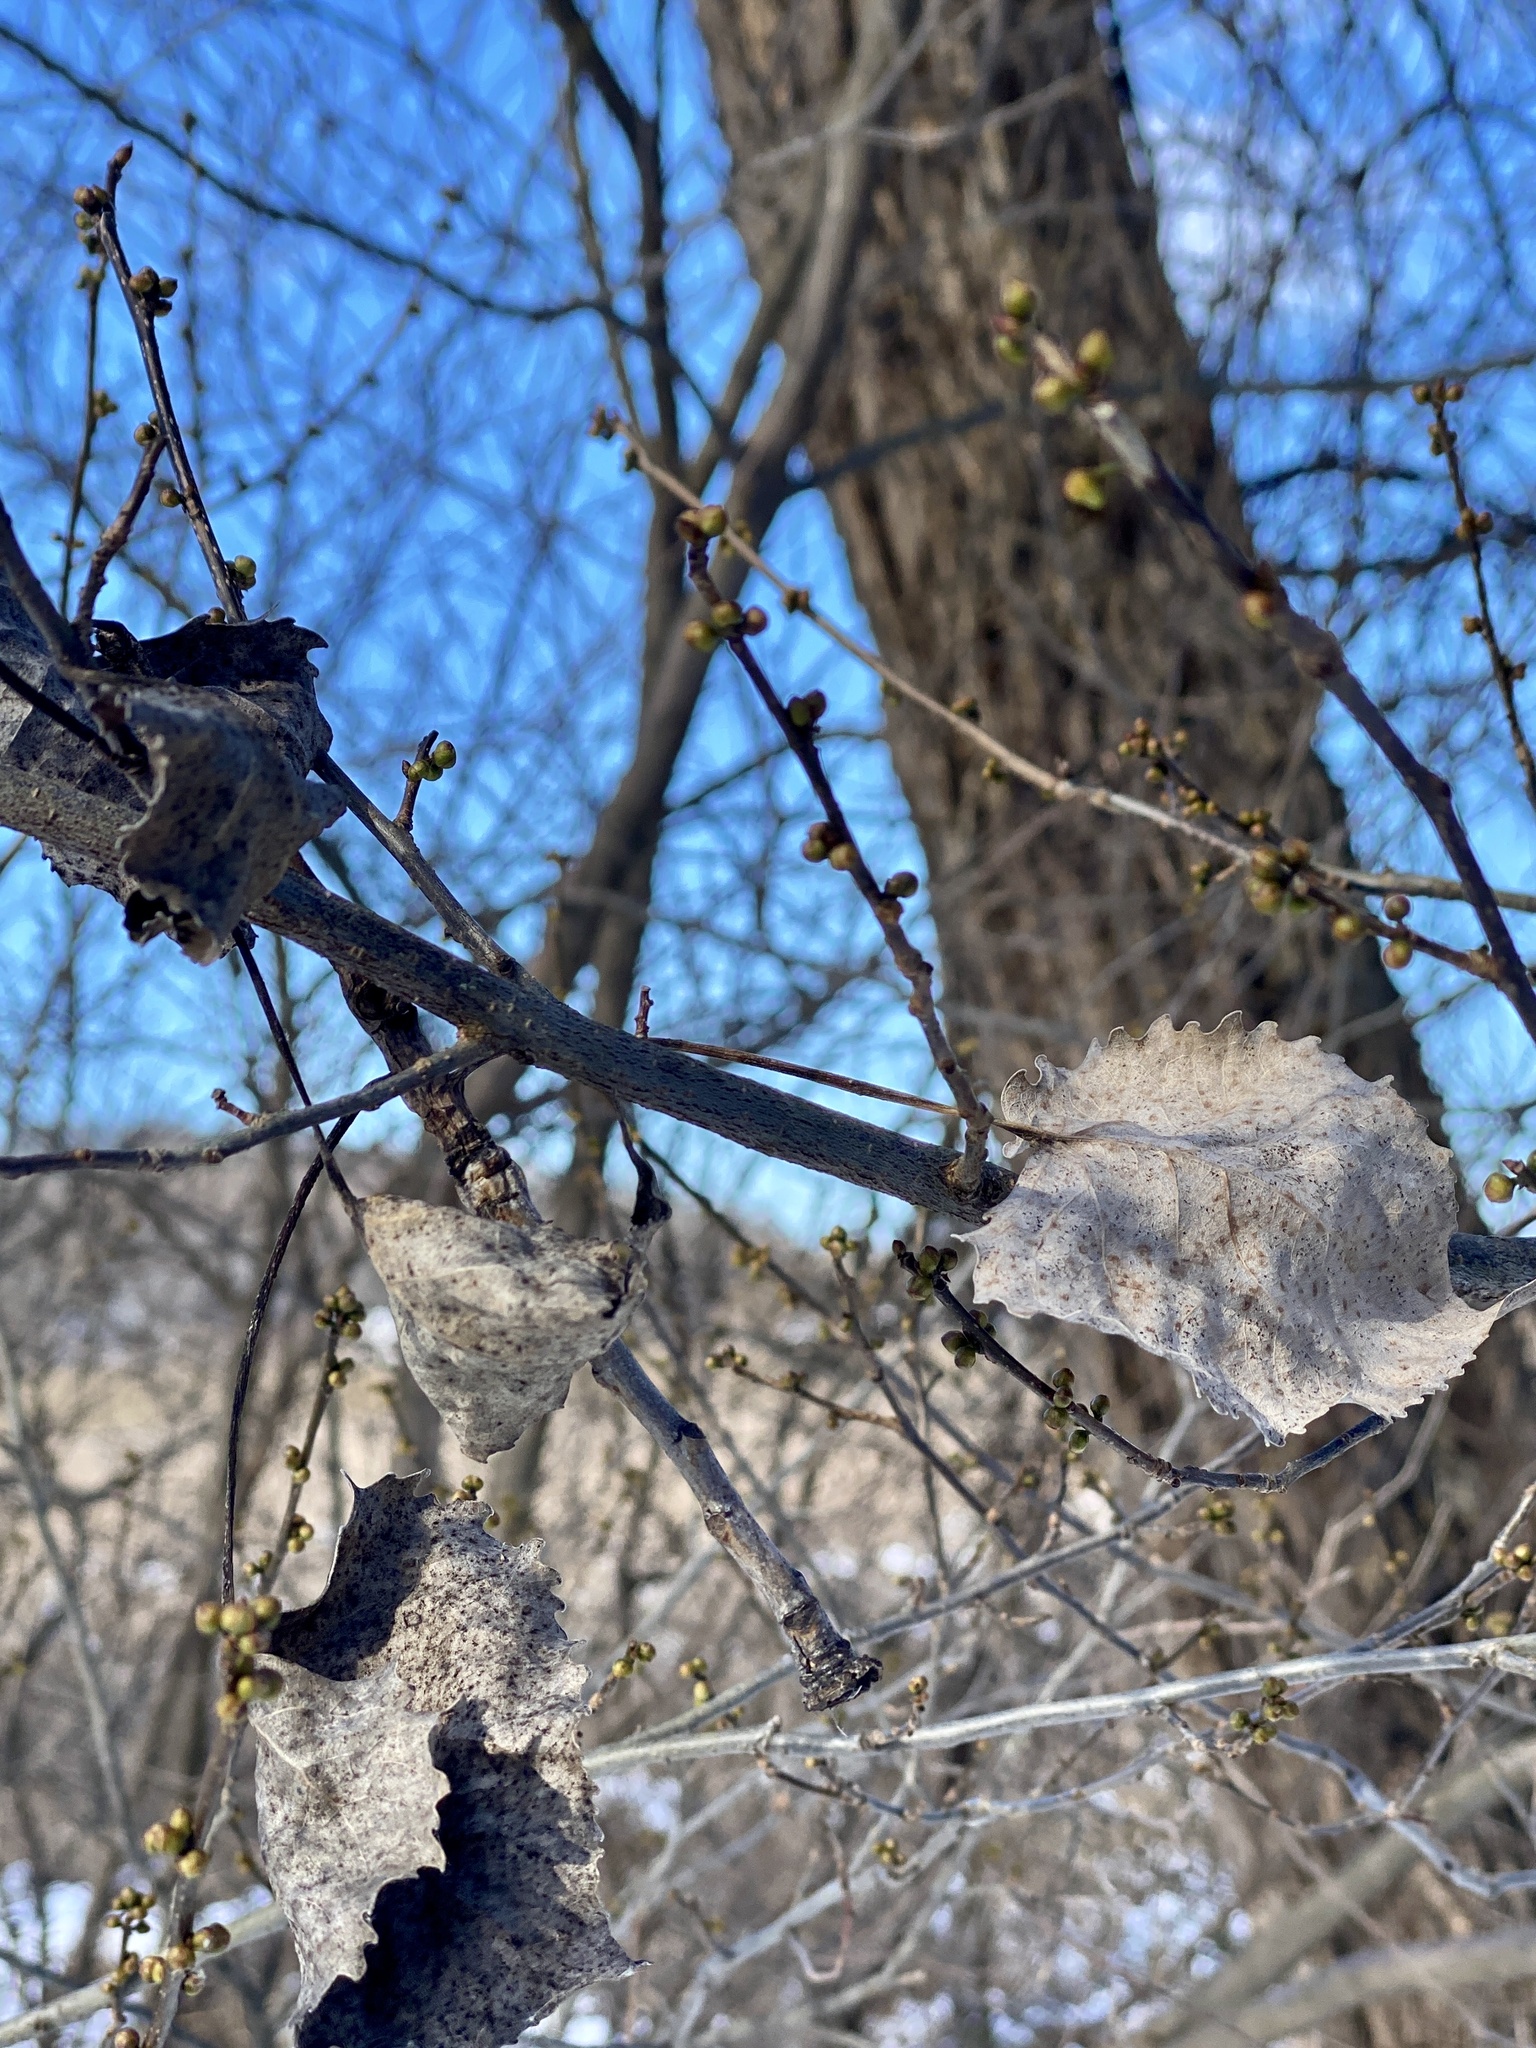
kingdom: Plantae
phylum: Tracheophyta
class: Magnoliopsida
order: Malpighiales
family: Salicaceae
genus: Populus
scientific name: Populus deltoides
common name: Eastern cottonwood
